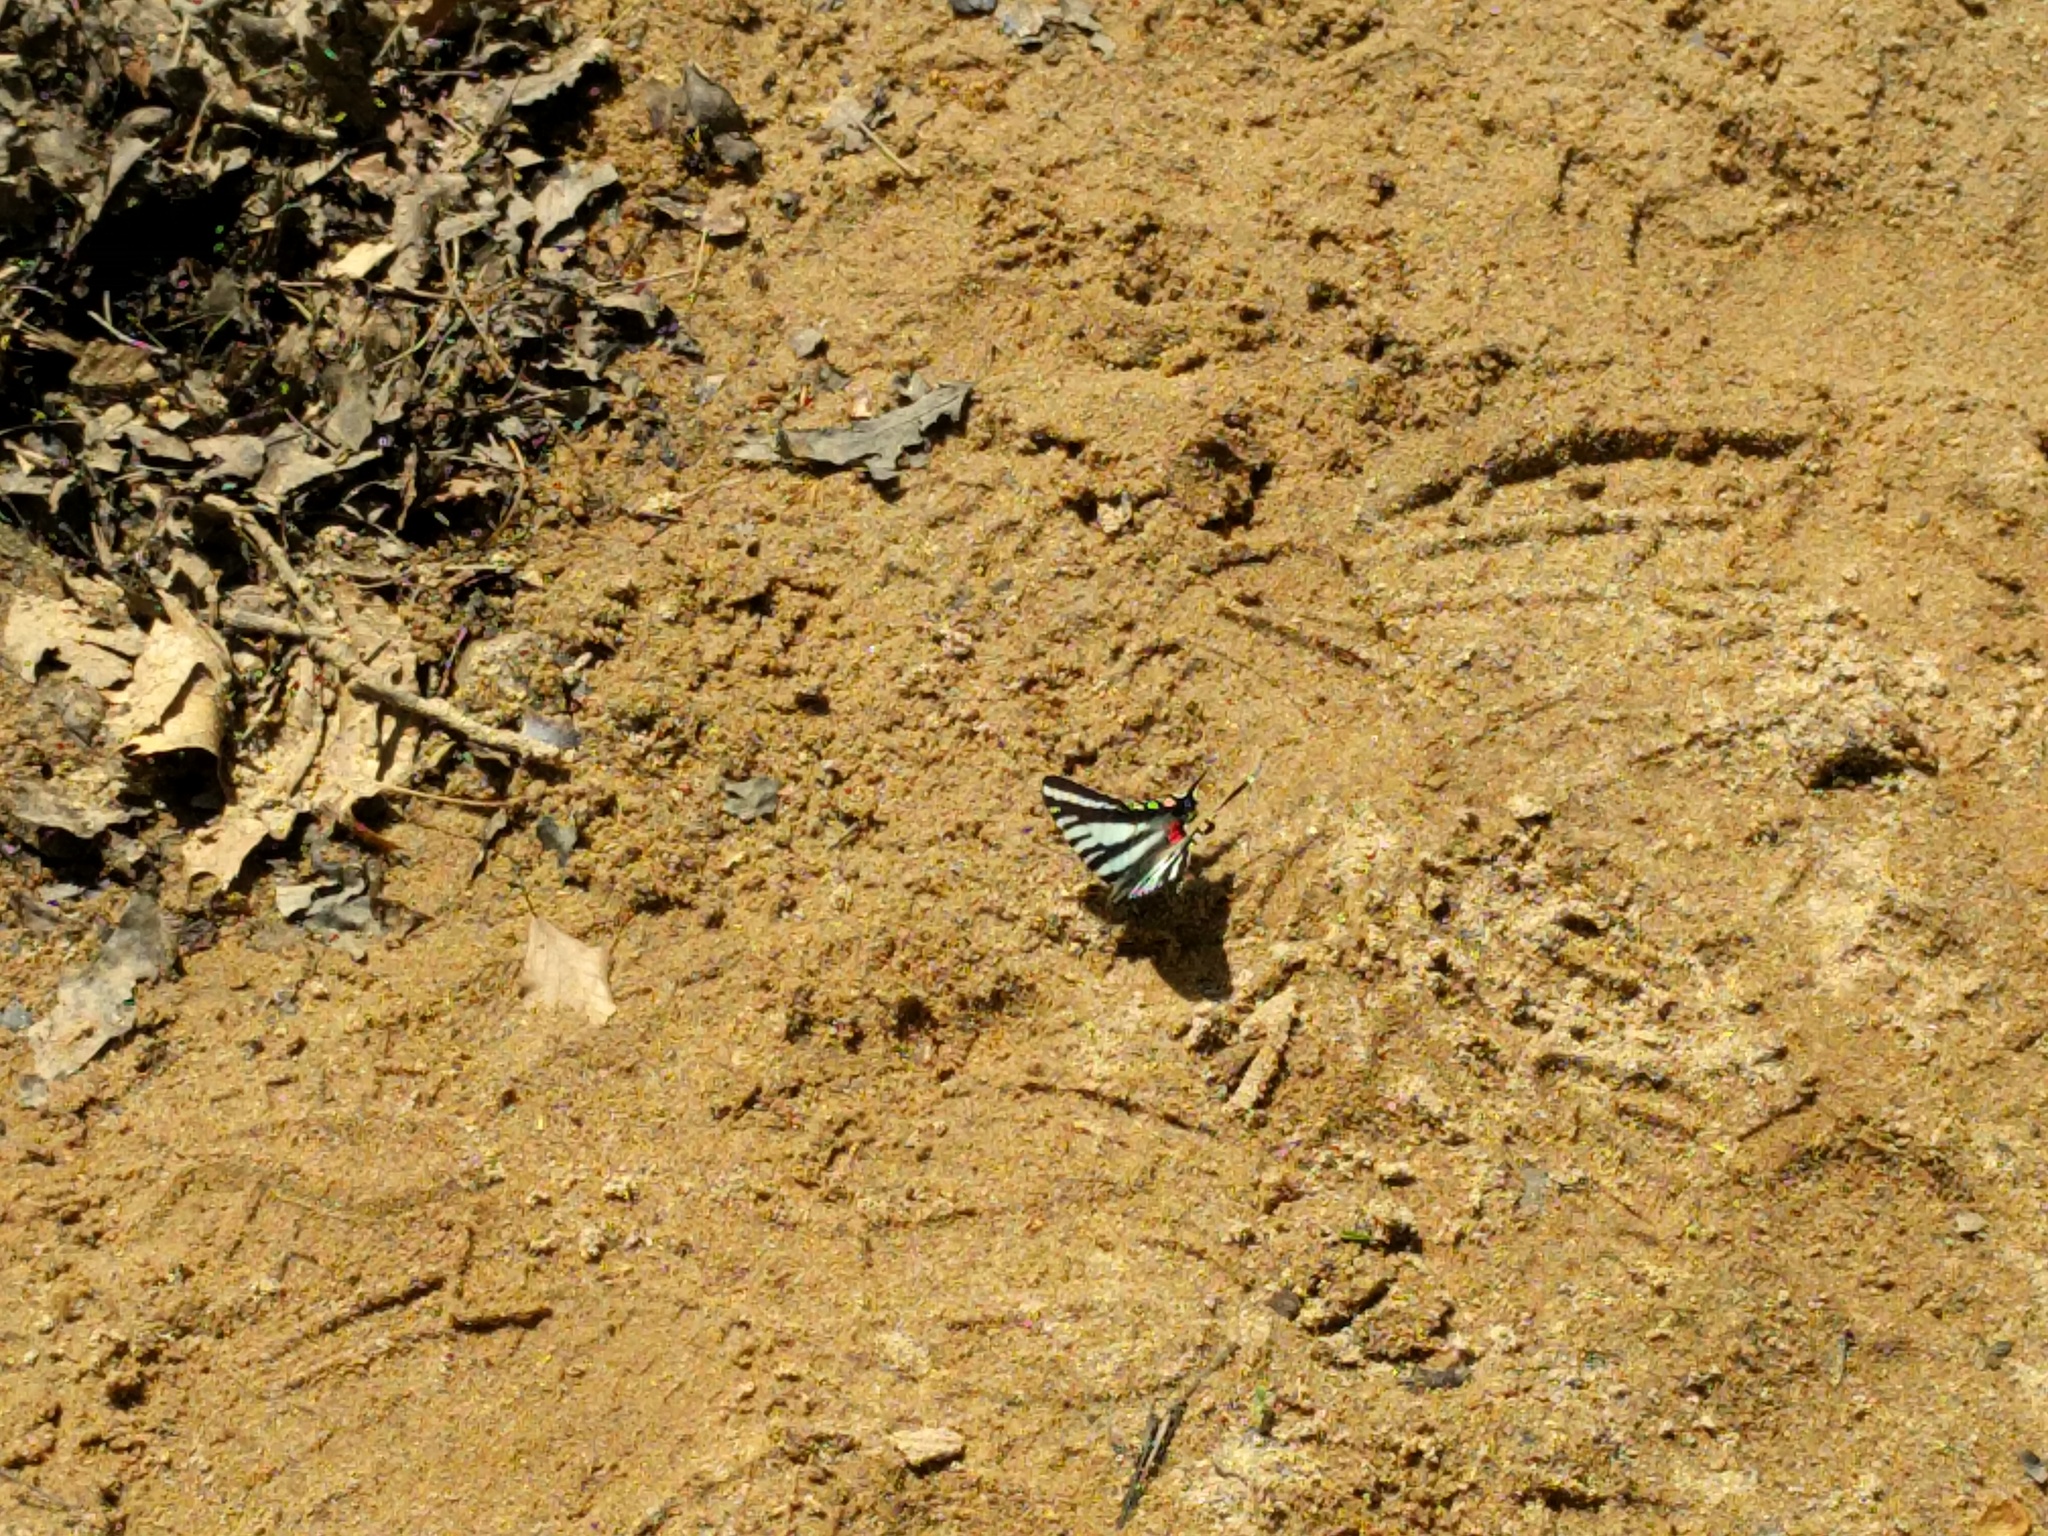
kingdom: Animalia
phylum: Arthropoda
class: Insecta
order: Lepidoptera
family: Papilionidae
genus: Protographium
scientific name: Protographium marcellus
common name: Zebra swallowtail
